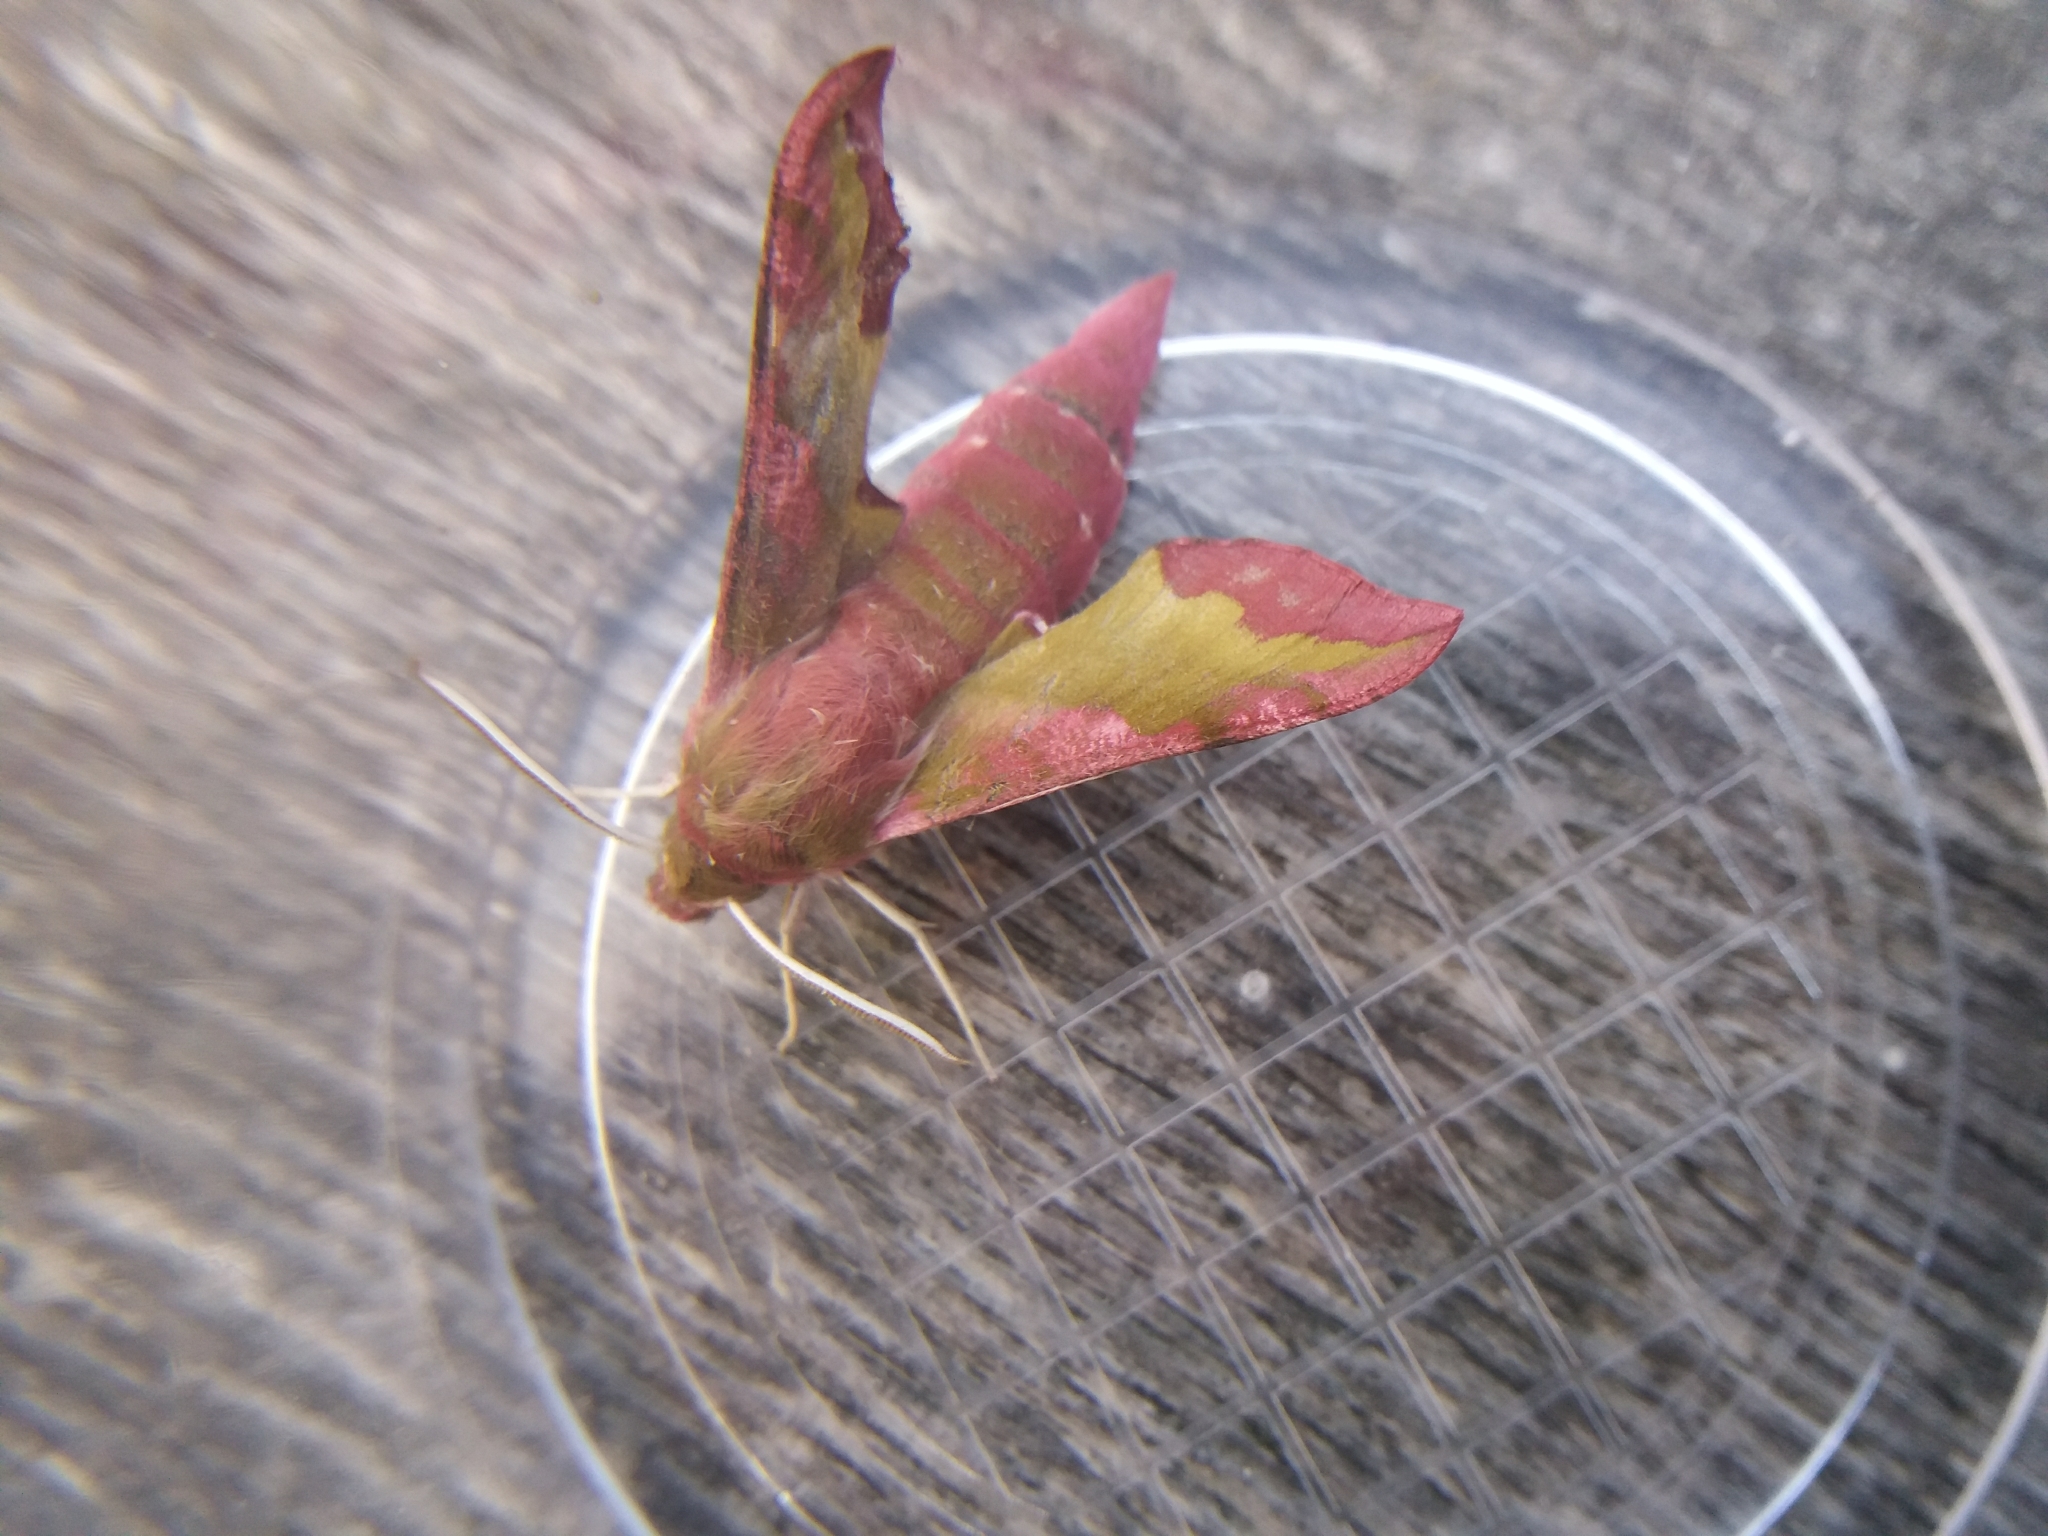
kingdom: Animalia
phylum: Arthropoda
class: Insecta
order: Lepidoptera
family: Sphingidae
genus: Deilephila
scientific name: Deilephila porcellus
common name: Small elephant hawk-moth
